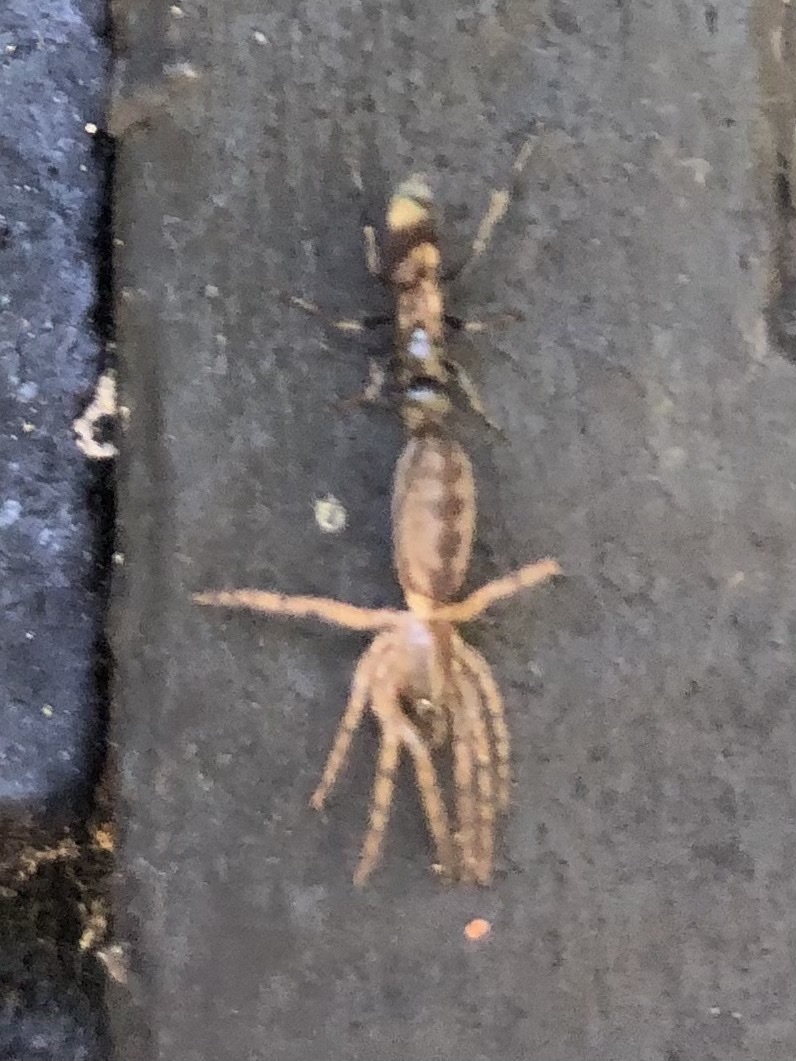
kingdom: Animalia
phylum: Arthropoda
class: Arachnida
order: Araneae
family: Segestriidae
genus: Segestria
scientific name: Segestria senoculata
